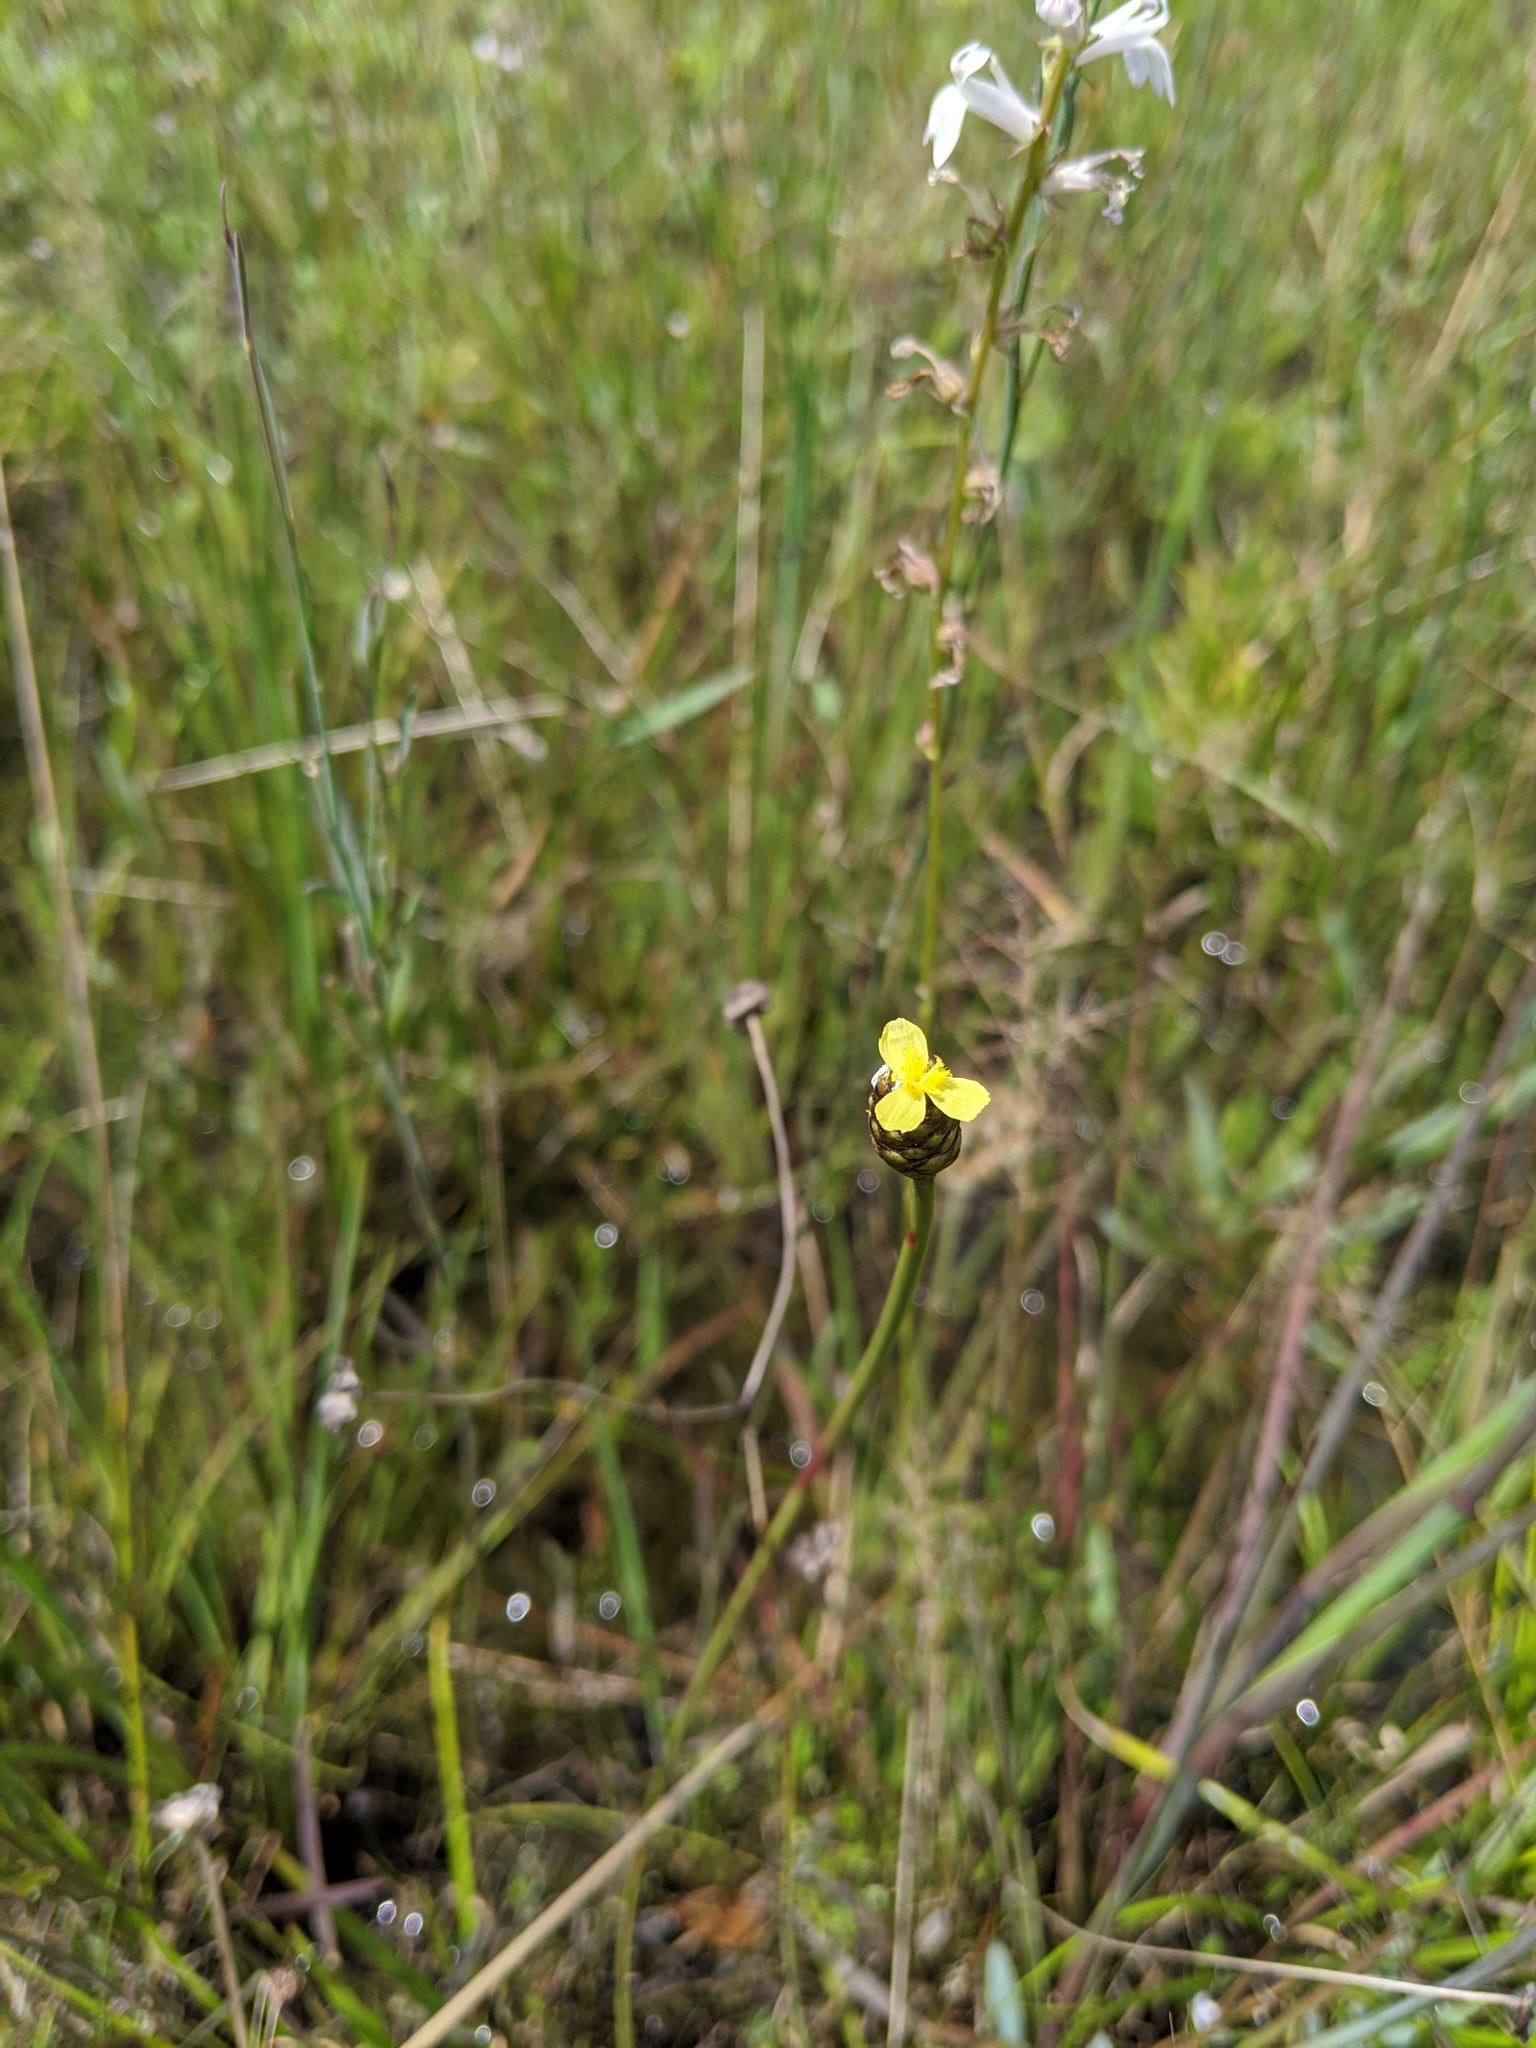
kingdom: Plantae
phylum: Tracheophyta
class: Liliopsida
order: Poales
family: Xyridaceae
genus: Xyris
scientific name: Xyris platylepis
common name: Tall yelloweyed grass
